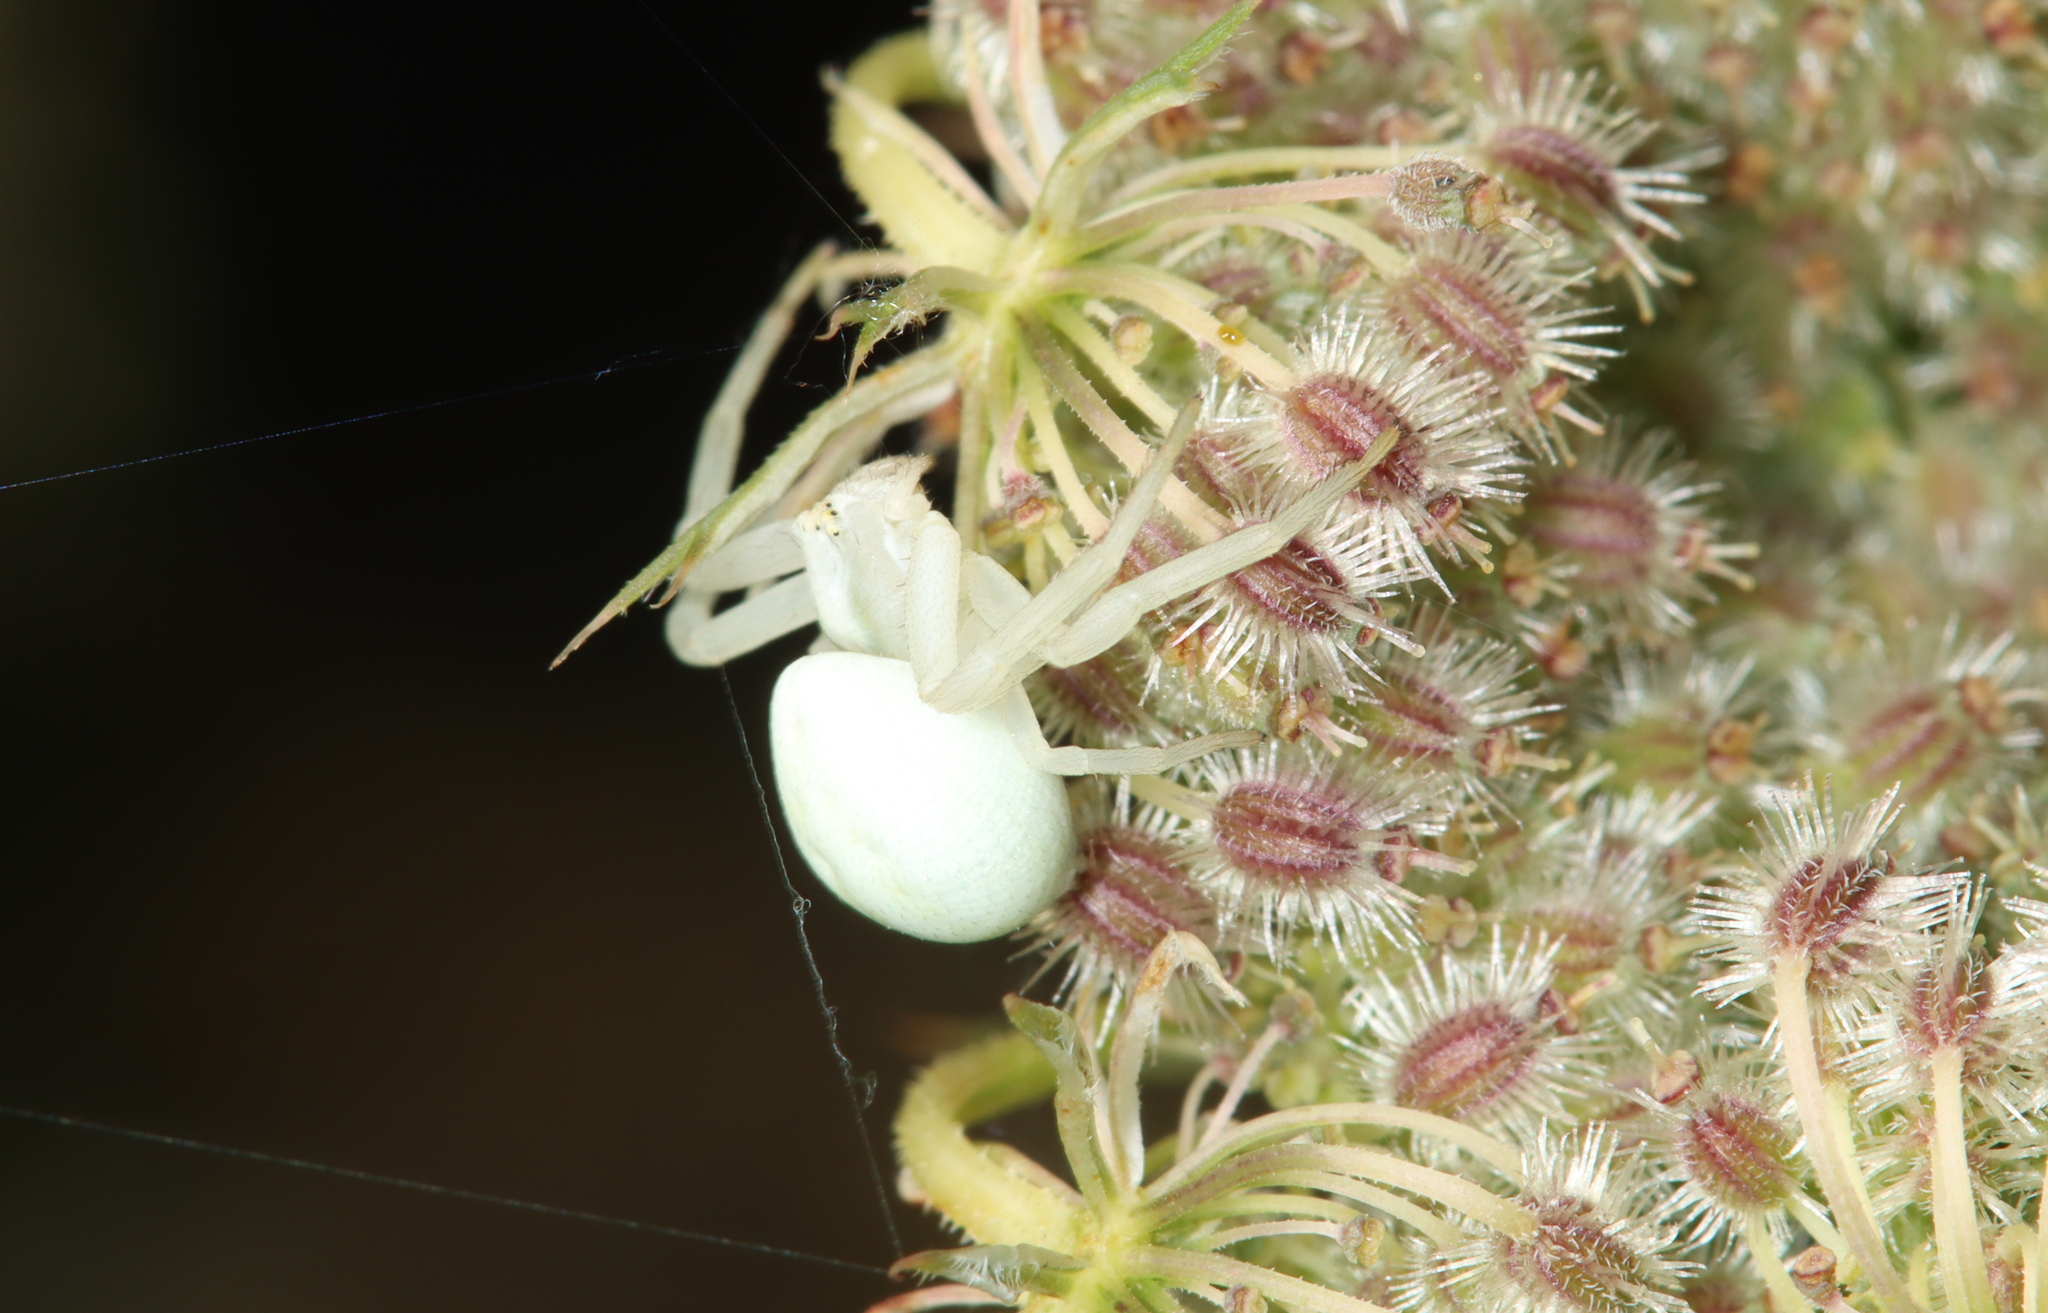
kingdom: Animalia
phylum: Arthropoda
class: Arachnida
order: Araneae
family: Thomisidae
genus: Misumena
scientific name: Misumena vatia
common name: Goldenrod crab spider
